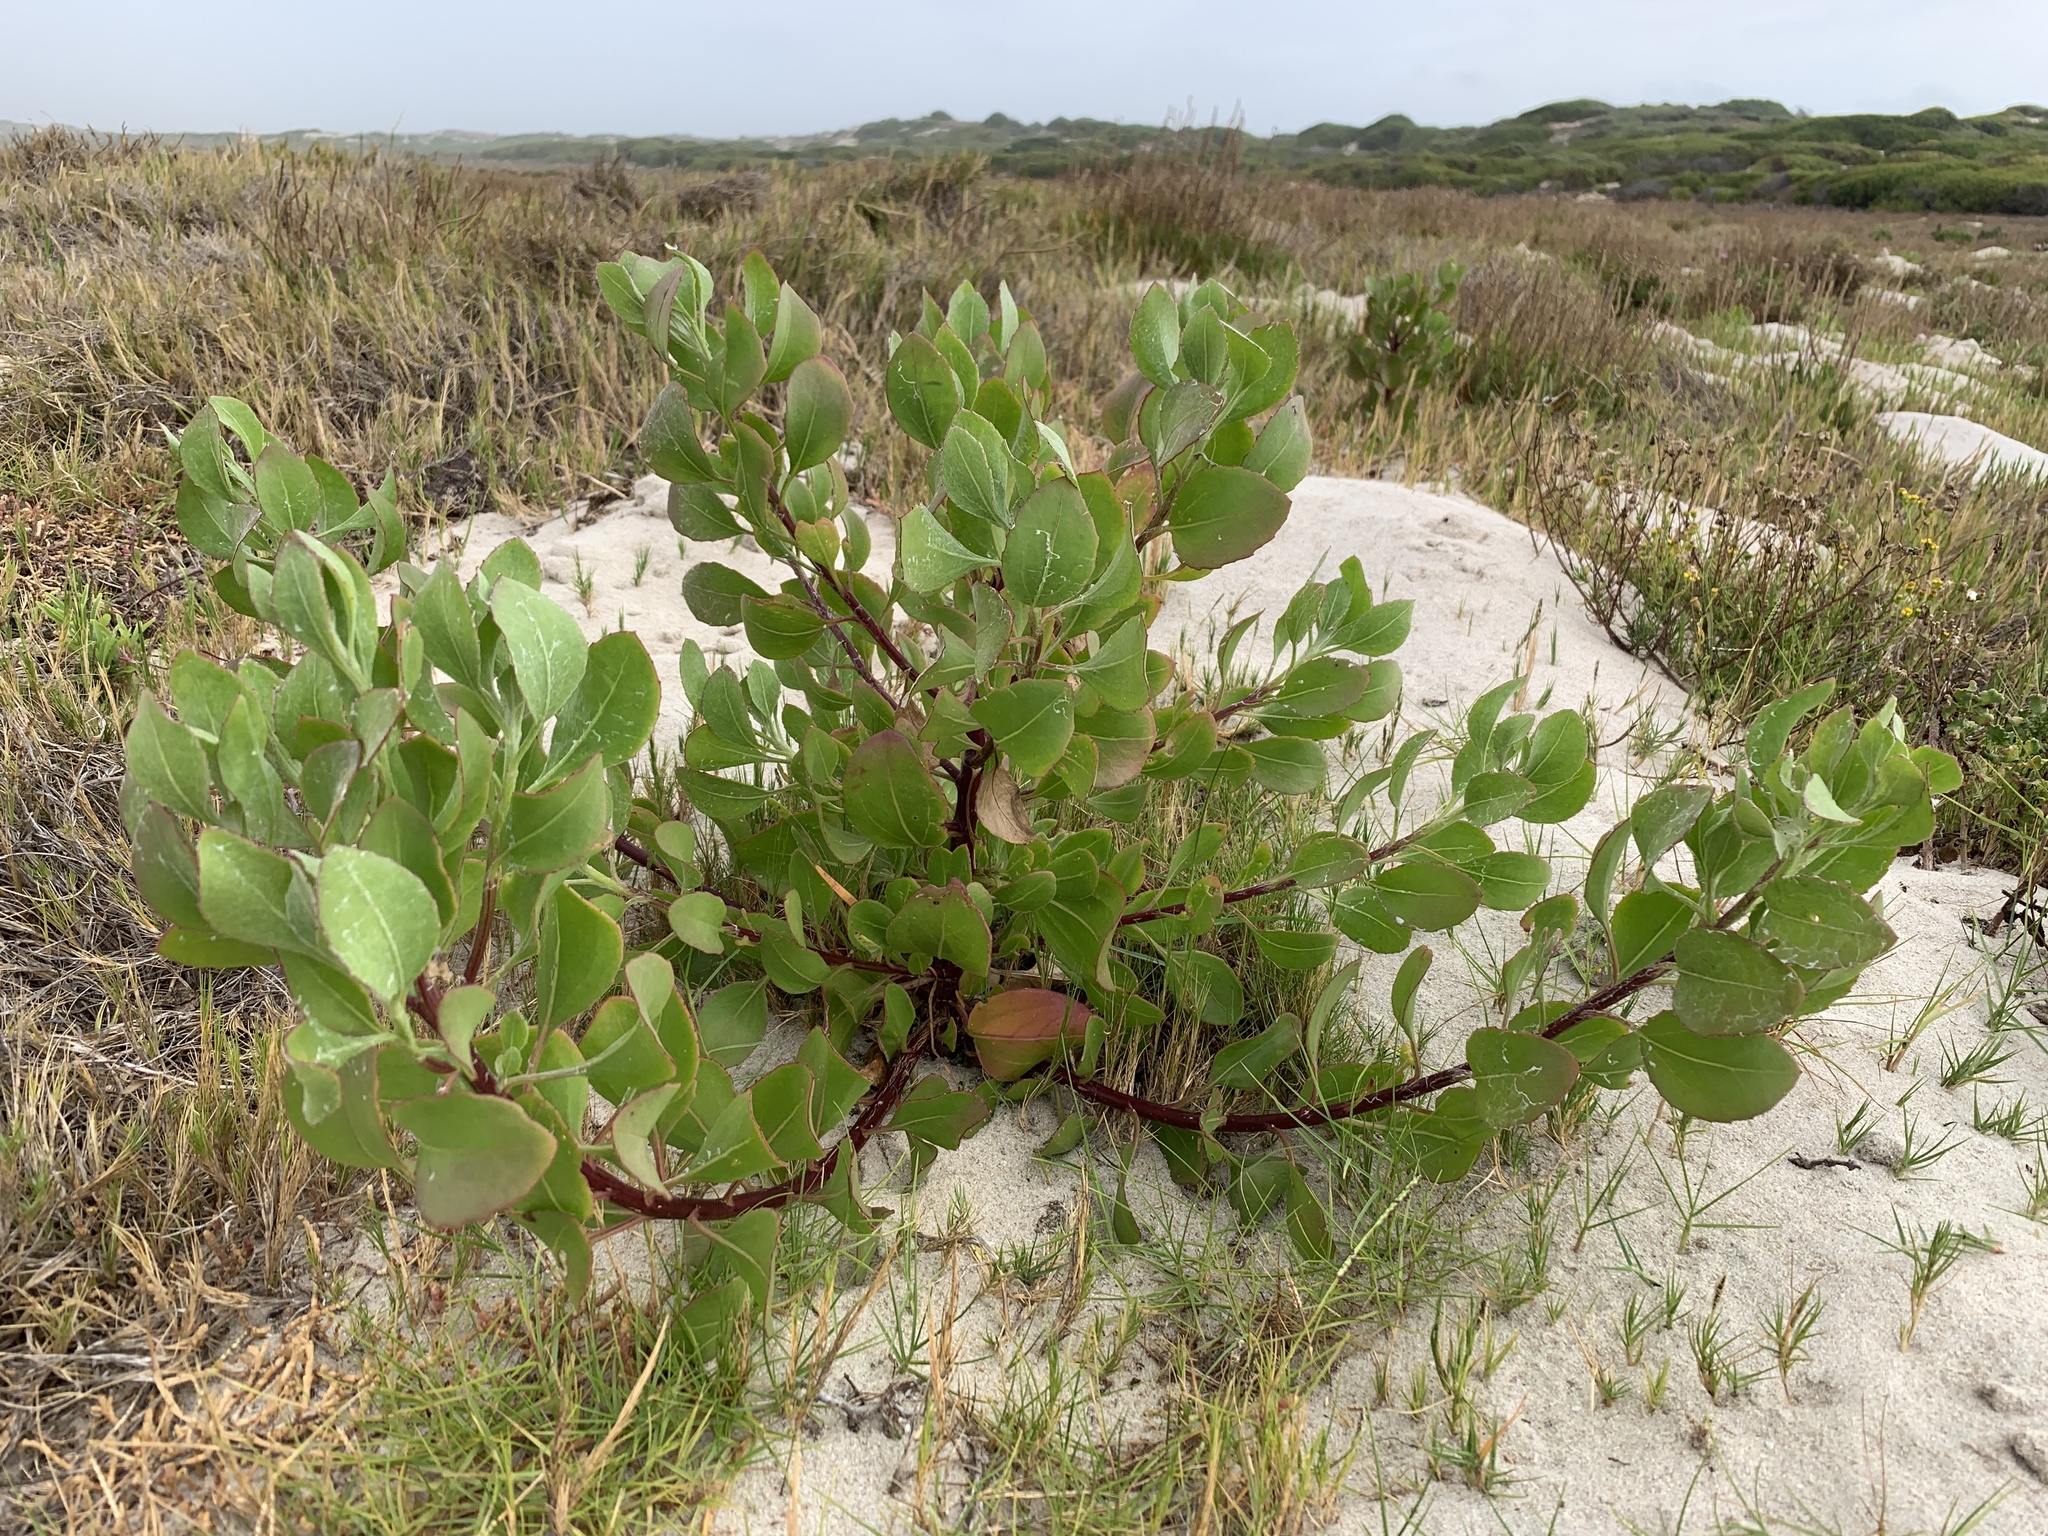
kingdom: Plantae
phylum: Tracheophyta
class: Magnoliopsida
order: Asterales
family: Asteraceae
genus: Osteospermum
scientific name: Osteospermum moniliferum
